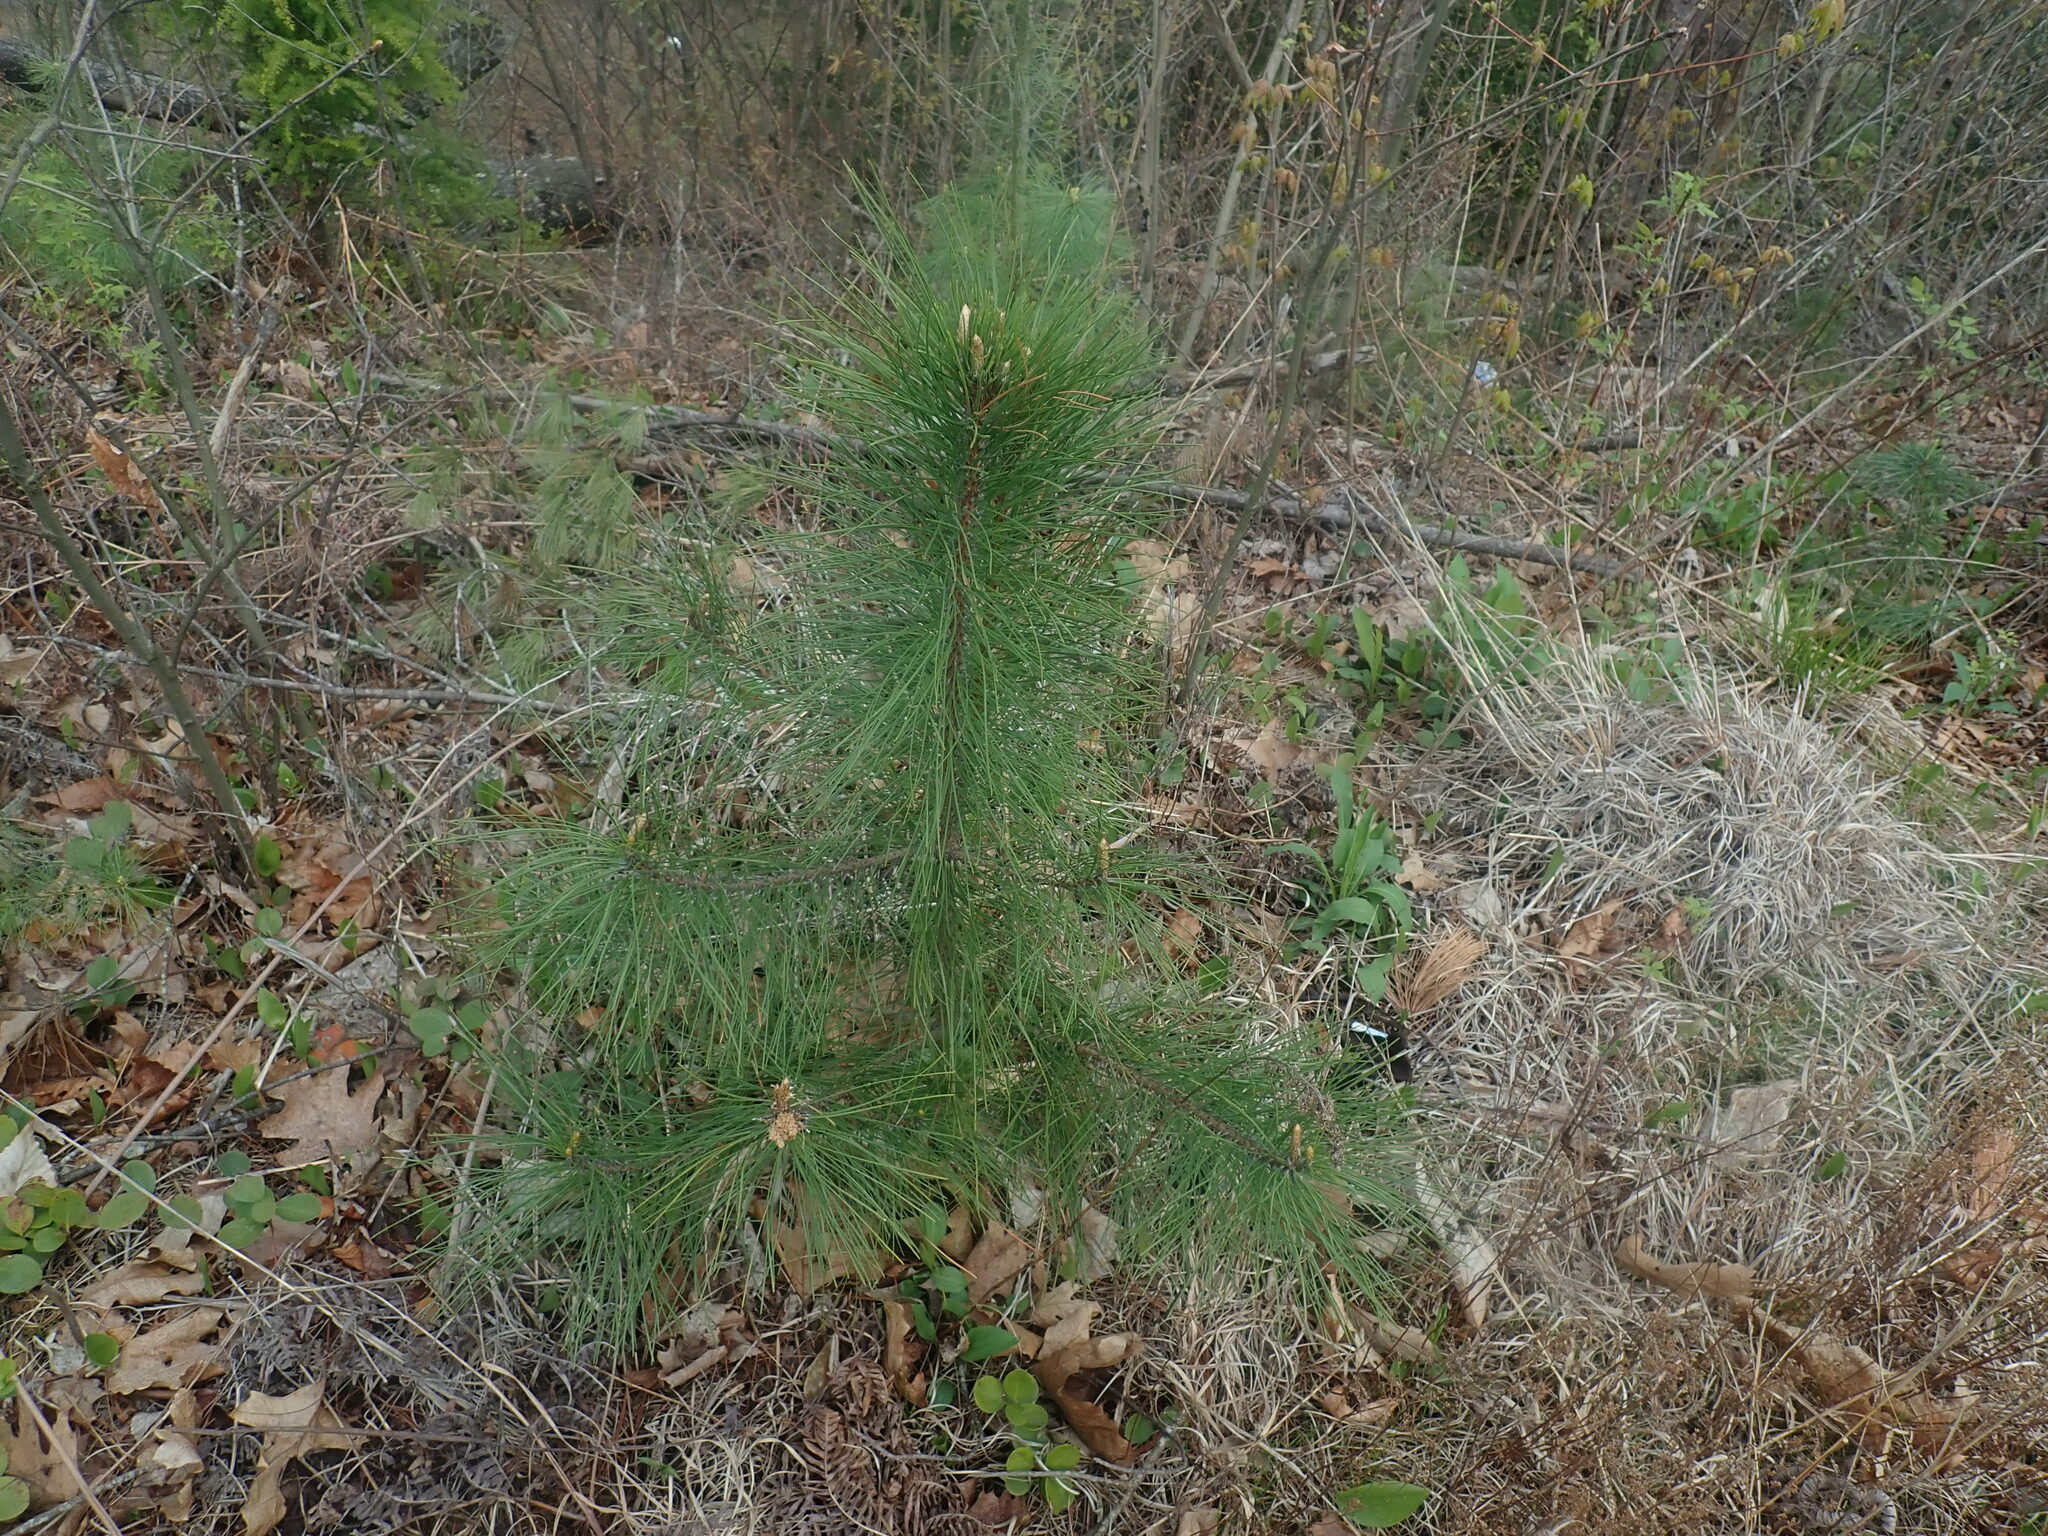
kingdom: Plantae
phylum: Tracheophyta
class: Pinopsida
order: Pinales
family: Pinaceae
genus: Pinus
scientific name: Pinus resinosa
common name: Norway pine
